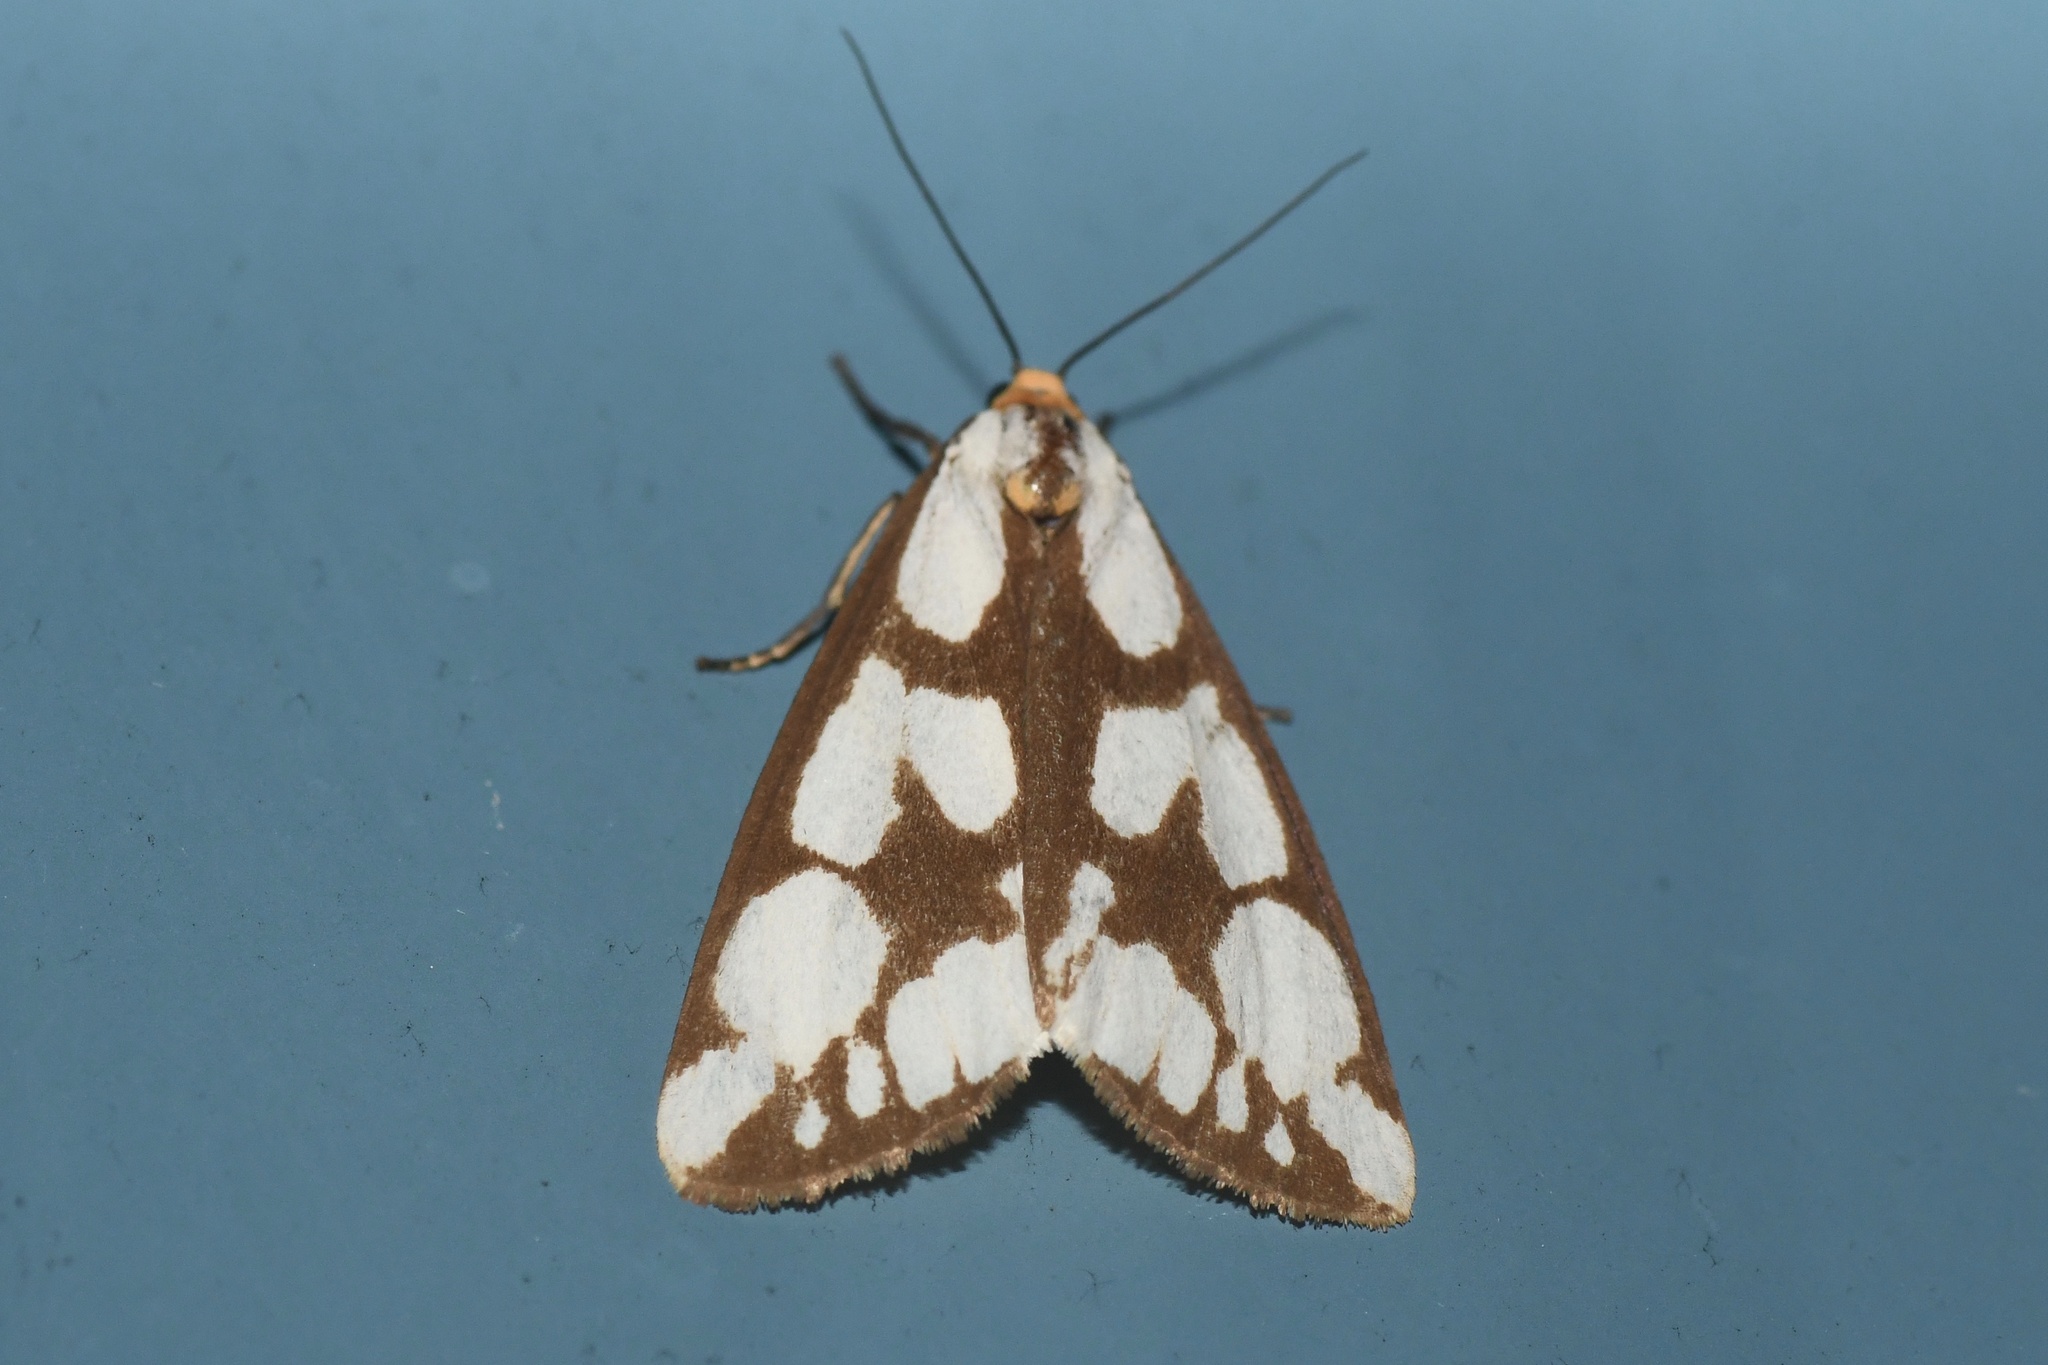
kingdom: Animalia
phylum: Arthropoda
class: Insecta
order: Lepidoptera
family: Erebidae
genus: Haploa
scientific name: Haploa confusa
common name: Confused haploa moth
